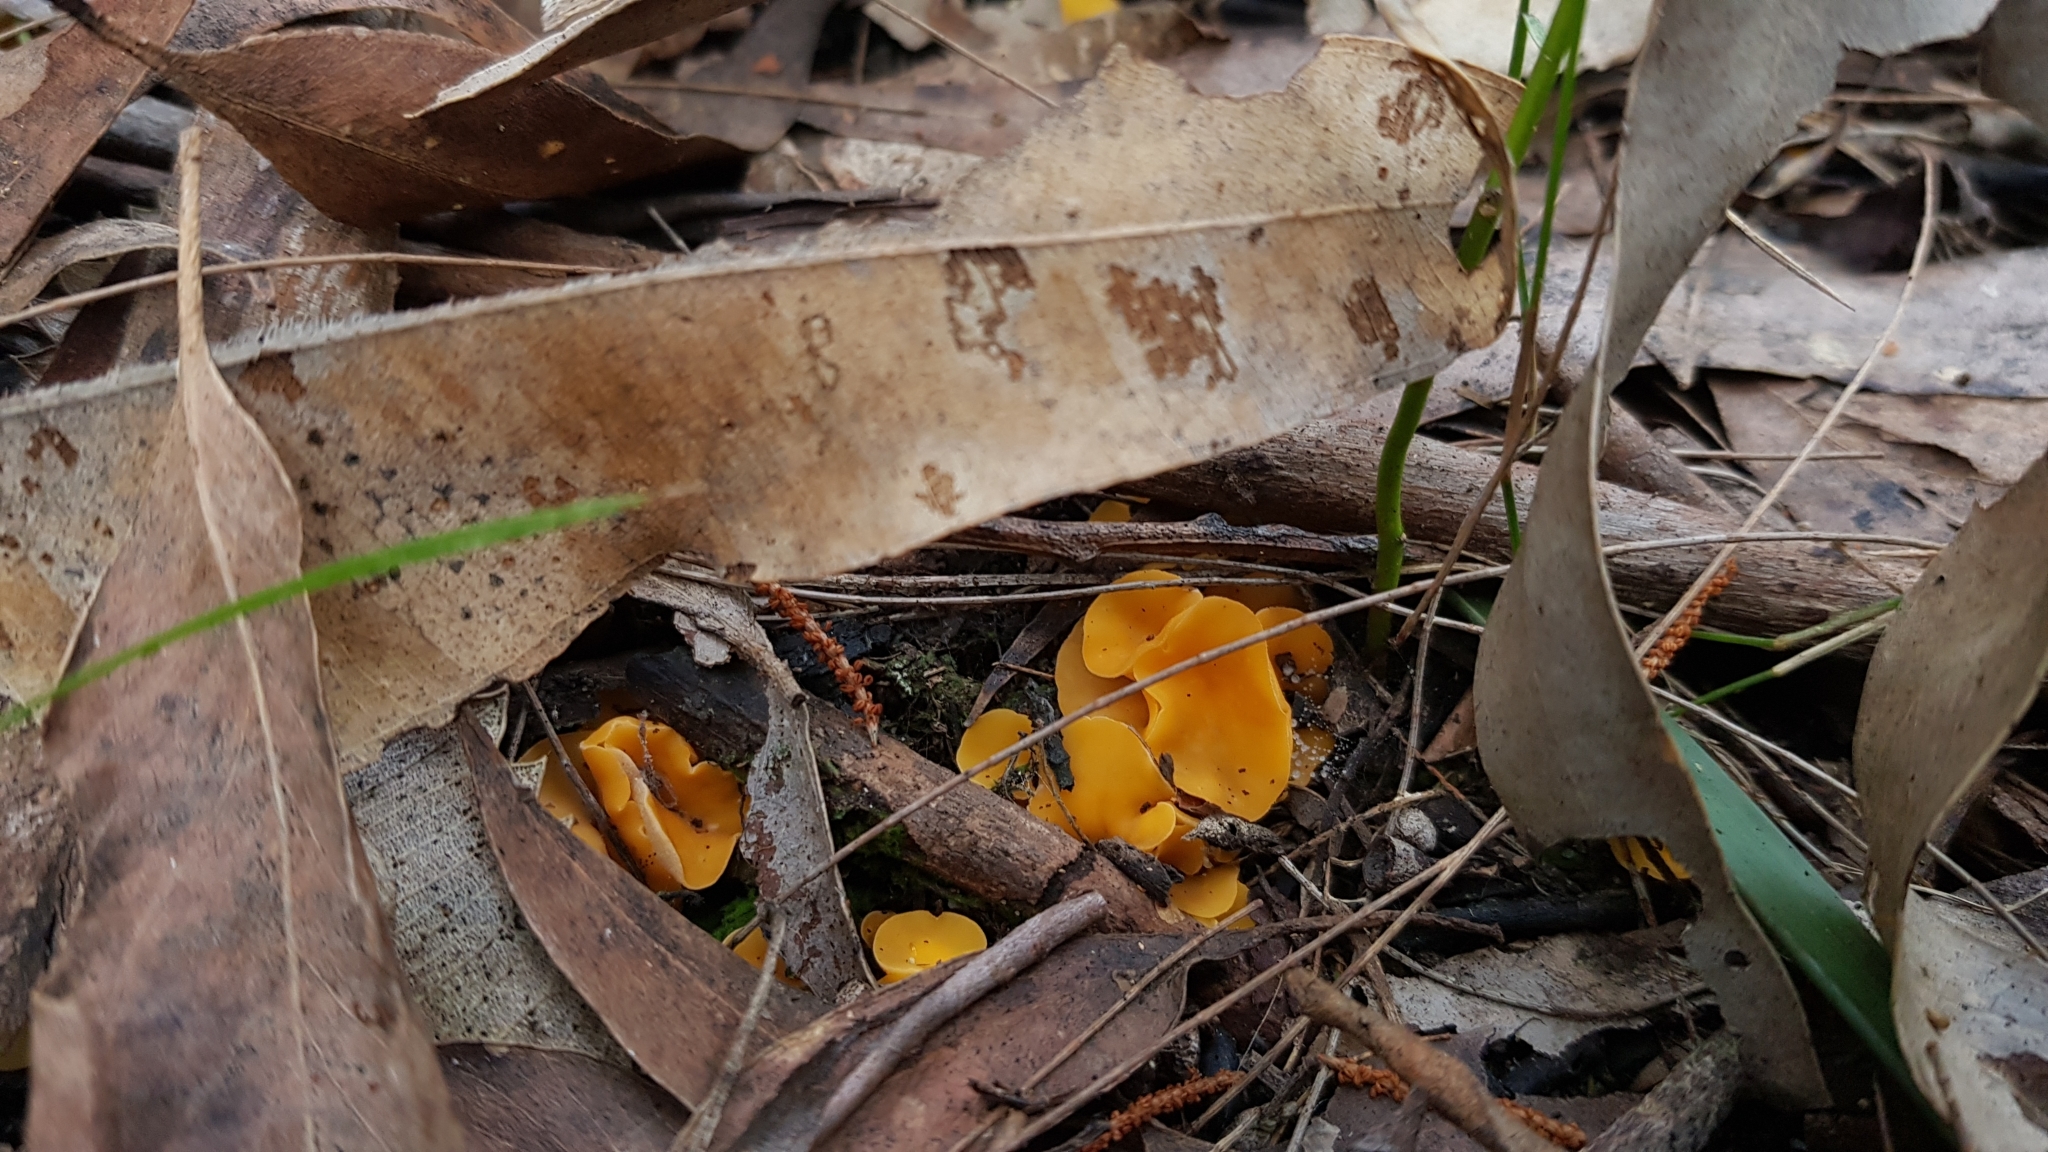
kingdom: Fungi
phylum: Ascomycota
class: Leotiomycetes
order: Helotiales
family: Helotiaceae
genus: Phaeohelotium
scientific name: Phaeohelotium baileyanum
